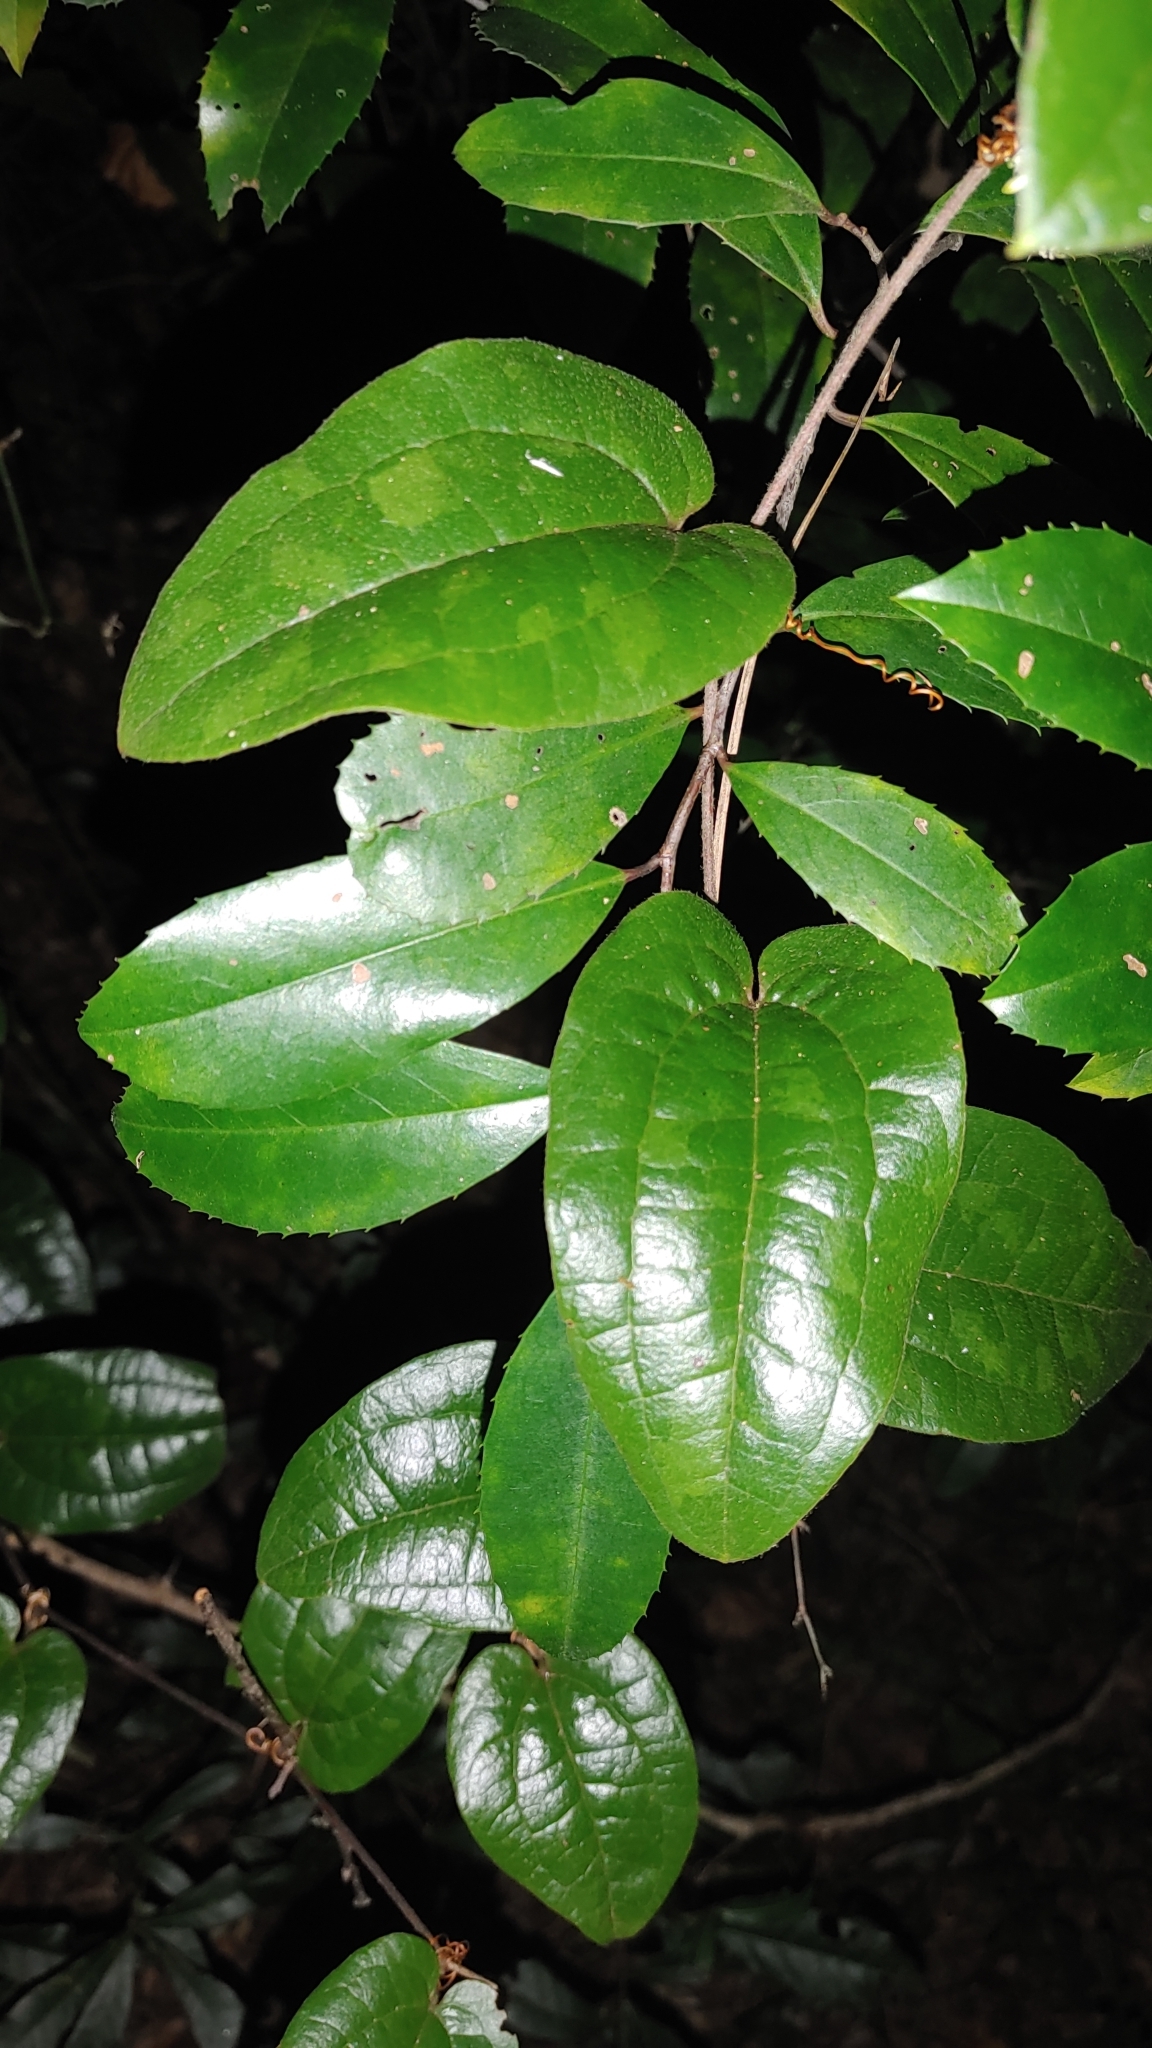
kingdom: Plantae
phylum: Tracheophyta
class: Liliopsida
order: Liliales
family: Smilacaceae
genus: Smilax
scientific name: Smilax pumila
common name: Sarsaparilla-vine
